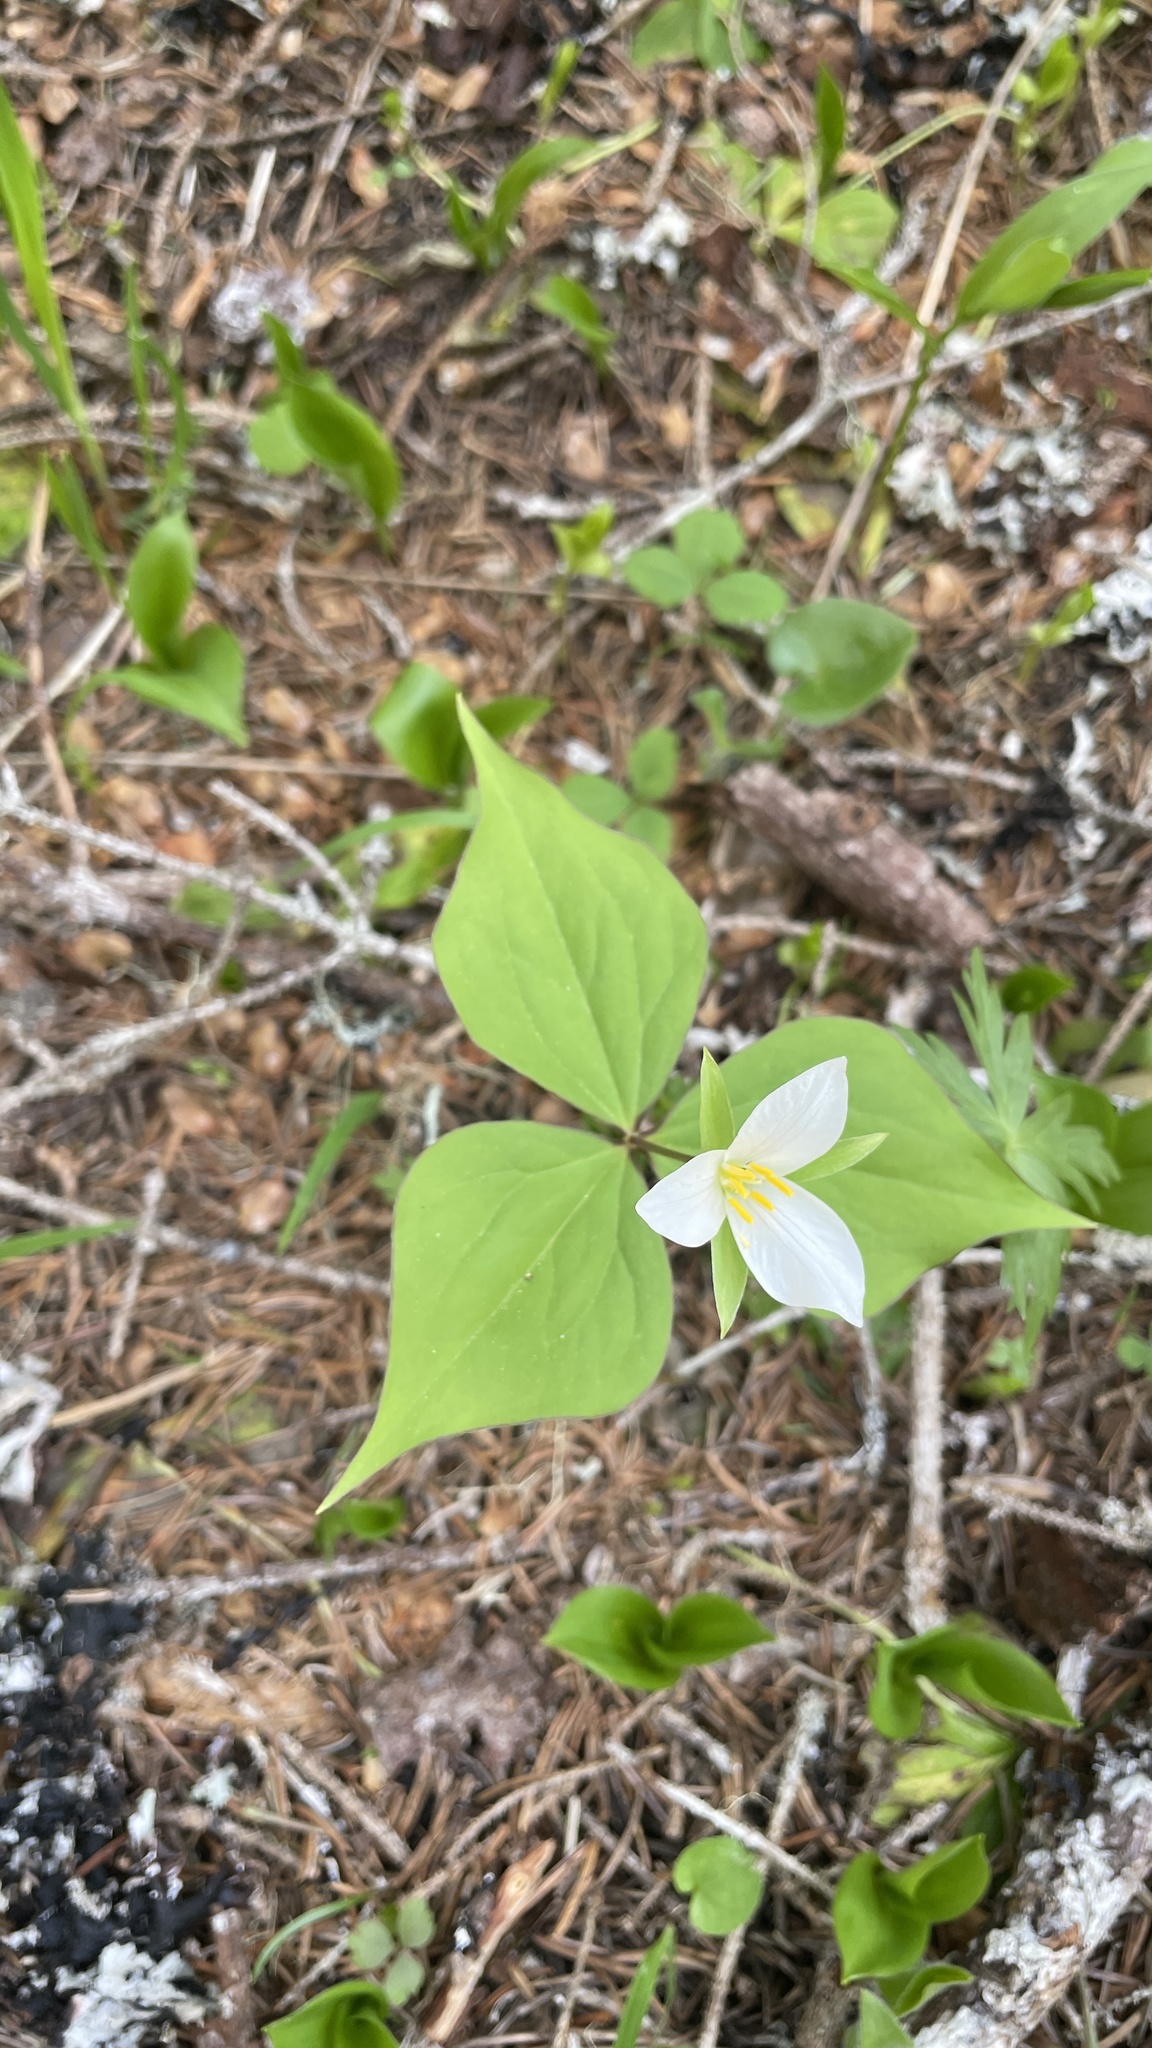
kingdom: Plantae
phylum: Tracheophyta
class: Liliopsida
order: Liliales
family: Melanthiaceae
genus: Trillium
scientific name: Trillium ovatum
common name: Pacific trillium
